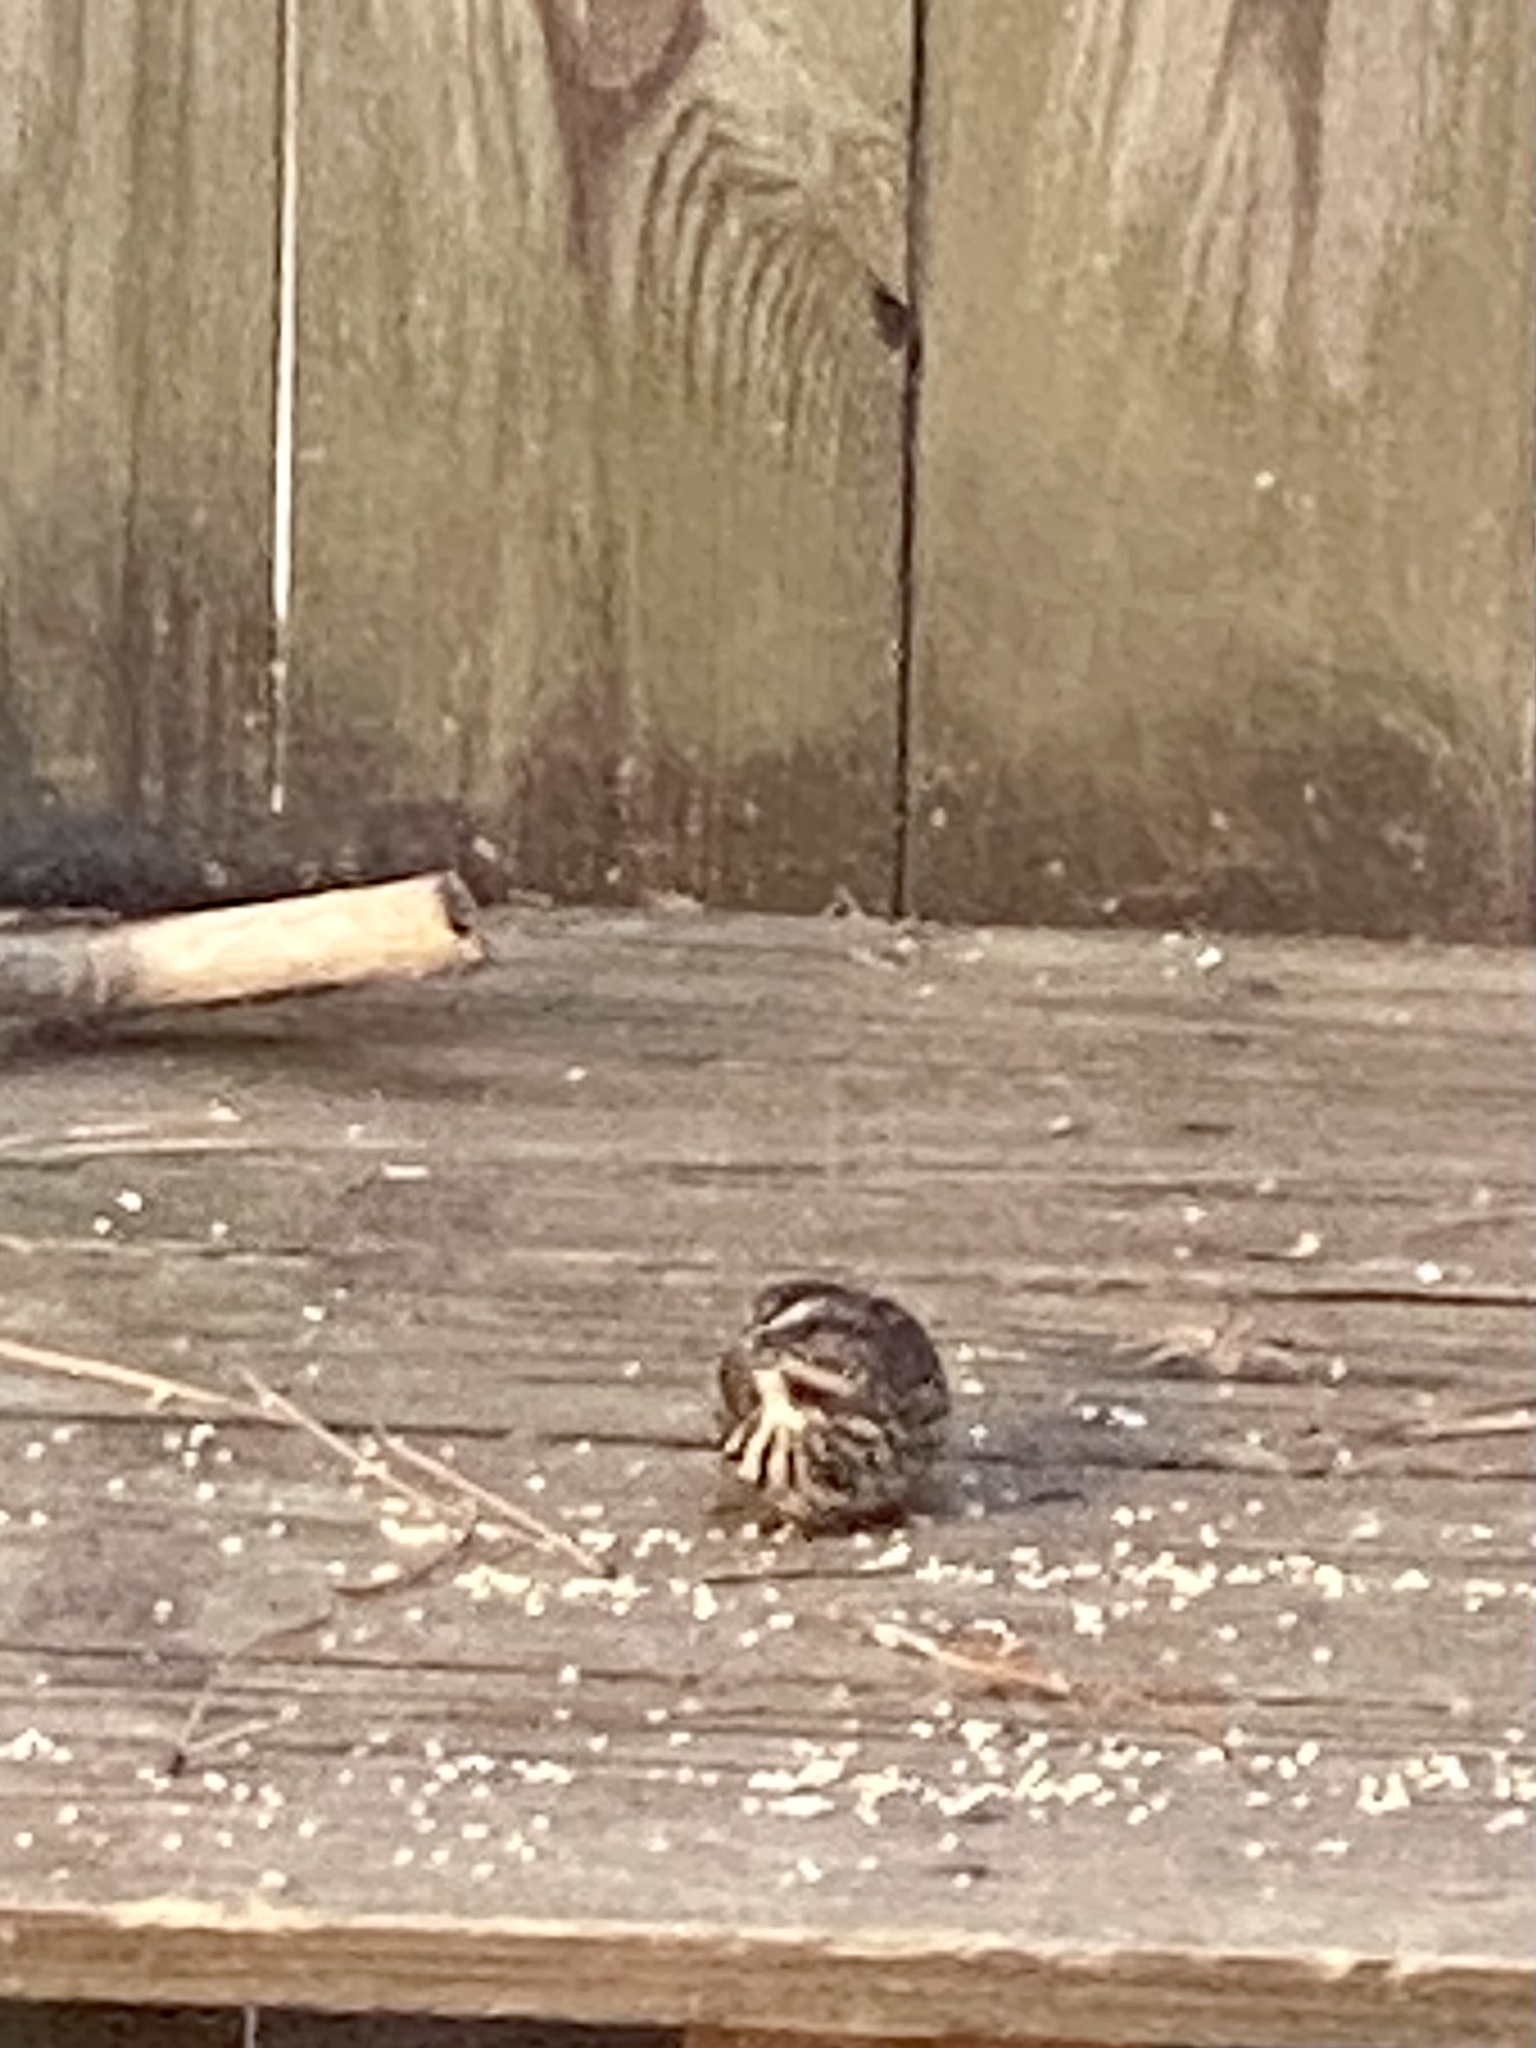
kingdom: Animalia
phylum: Chordata
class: Aves
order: Passeriformes
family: Passerellidae
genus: Melospiza
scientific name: Melospiza melodia
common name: Song sparrow
